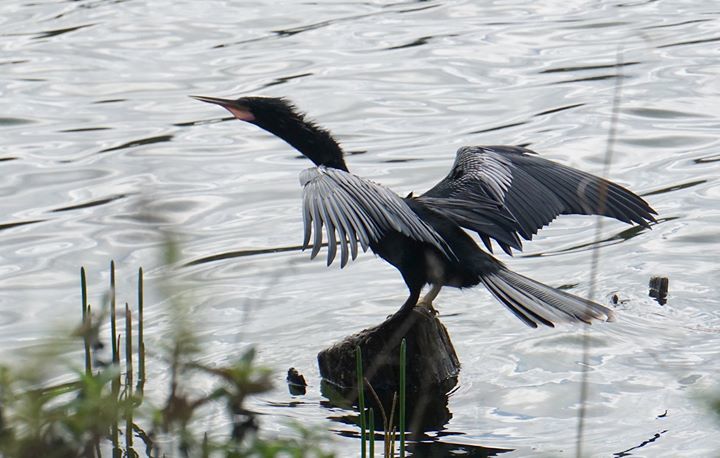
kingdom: Animalia
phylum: Chordata
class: Aves
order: Suliformes
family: Anhingidae
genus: Anhinga
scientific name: Anhinga anhinga
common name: Anhinga
